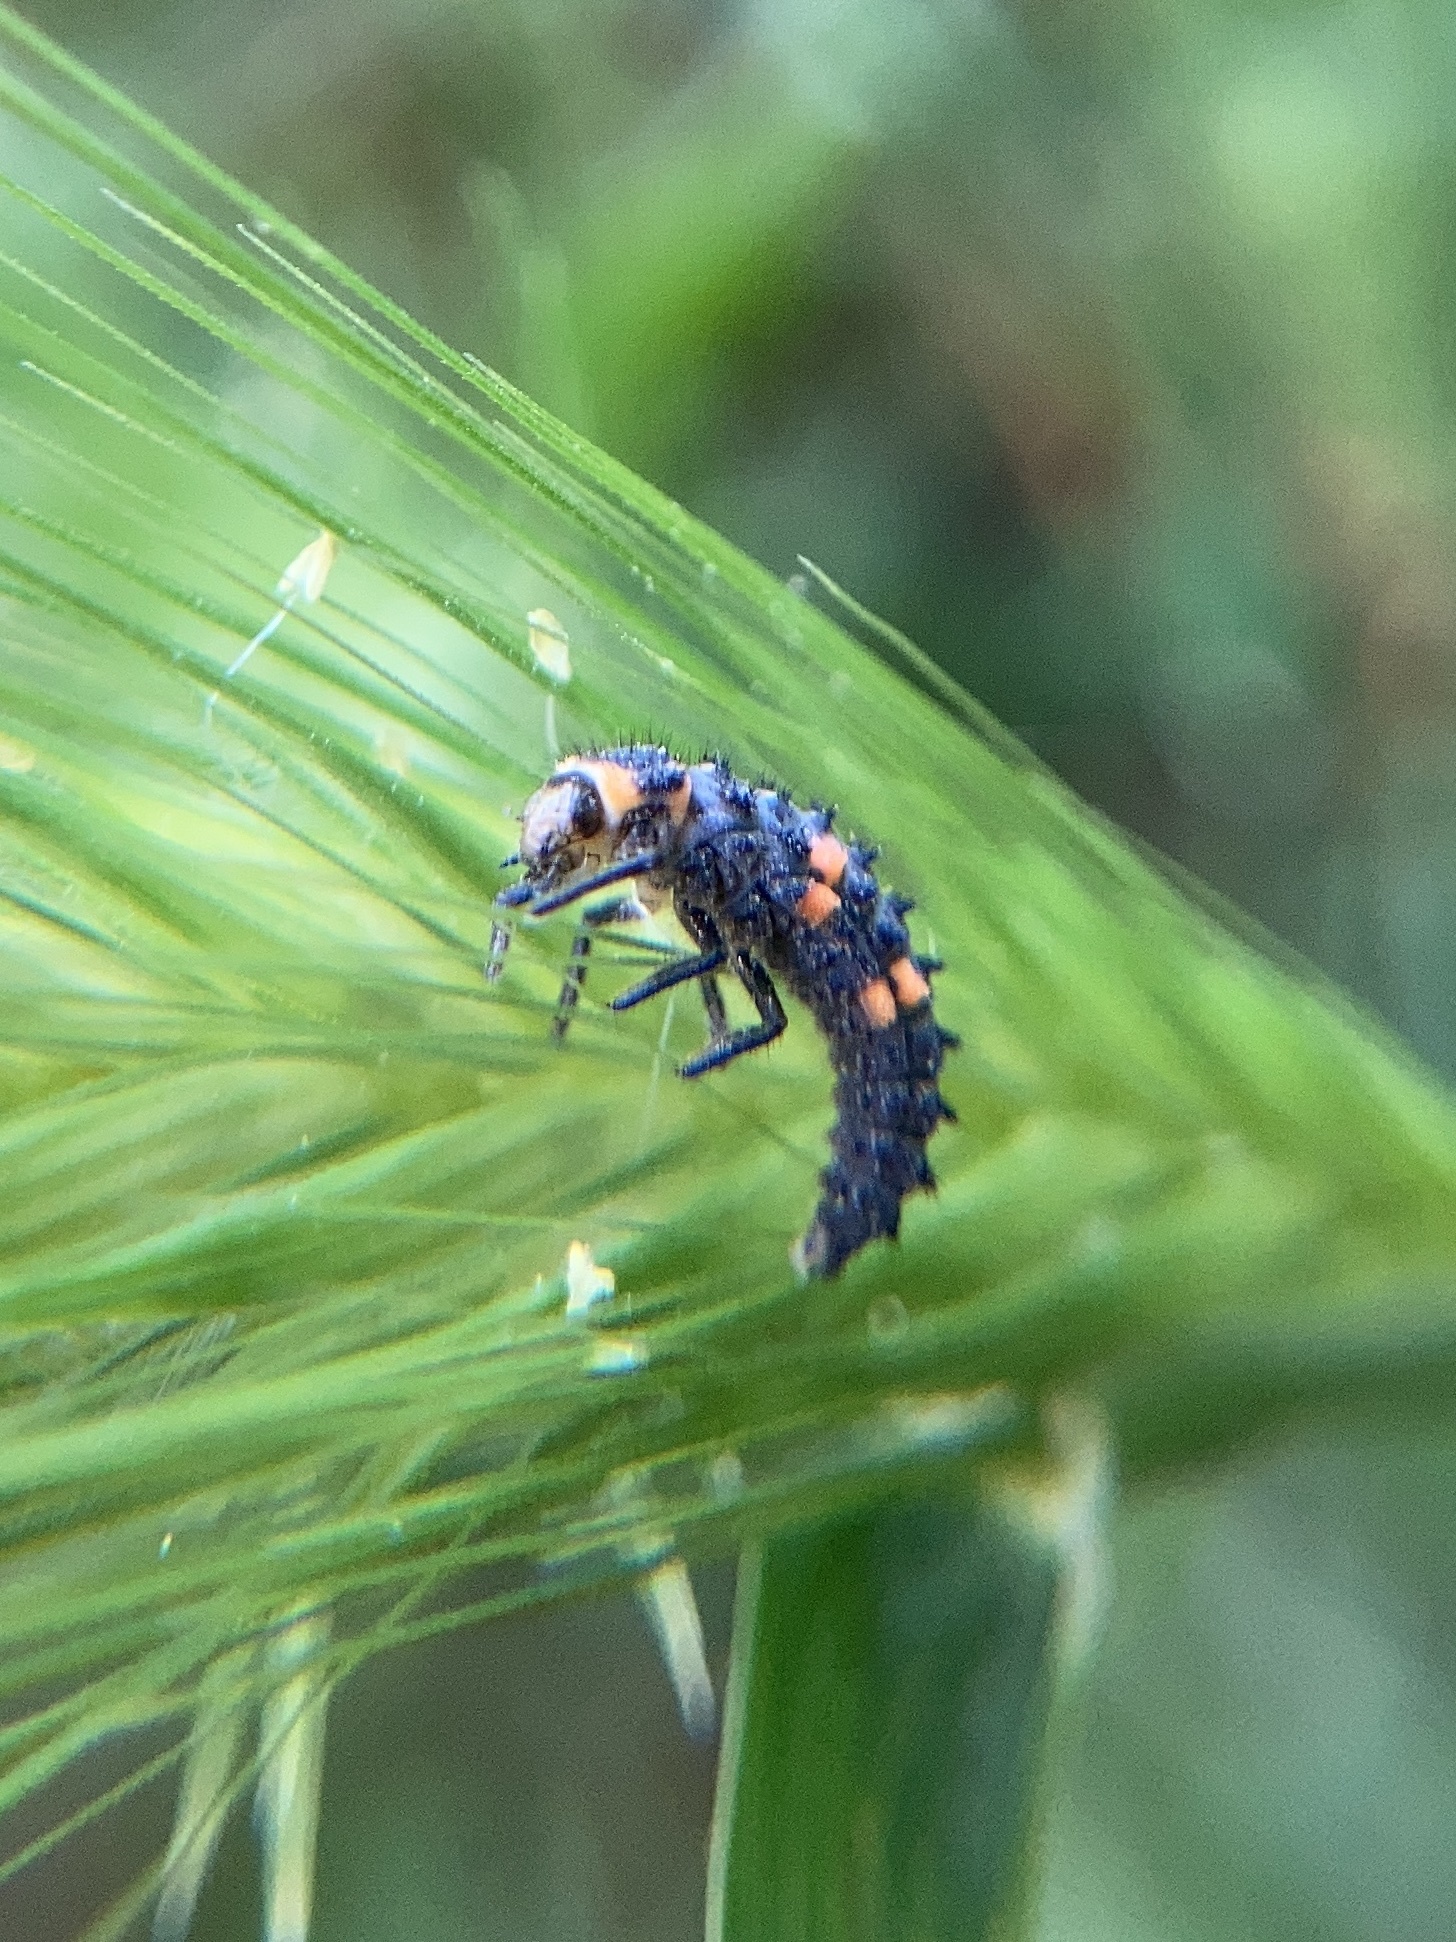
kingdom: Animalia
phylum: Arthropoda
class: Insecta
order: Coleoptera
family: Coccinellidae
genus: Coccinella
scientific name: Coccinella septempunctata
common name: Sevenspotted lady beetle
